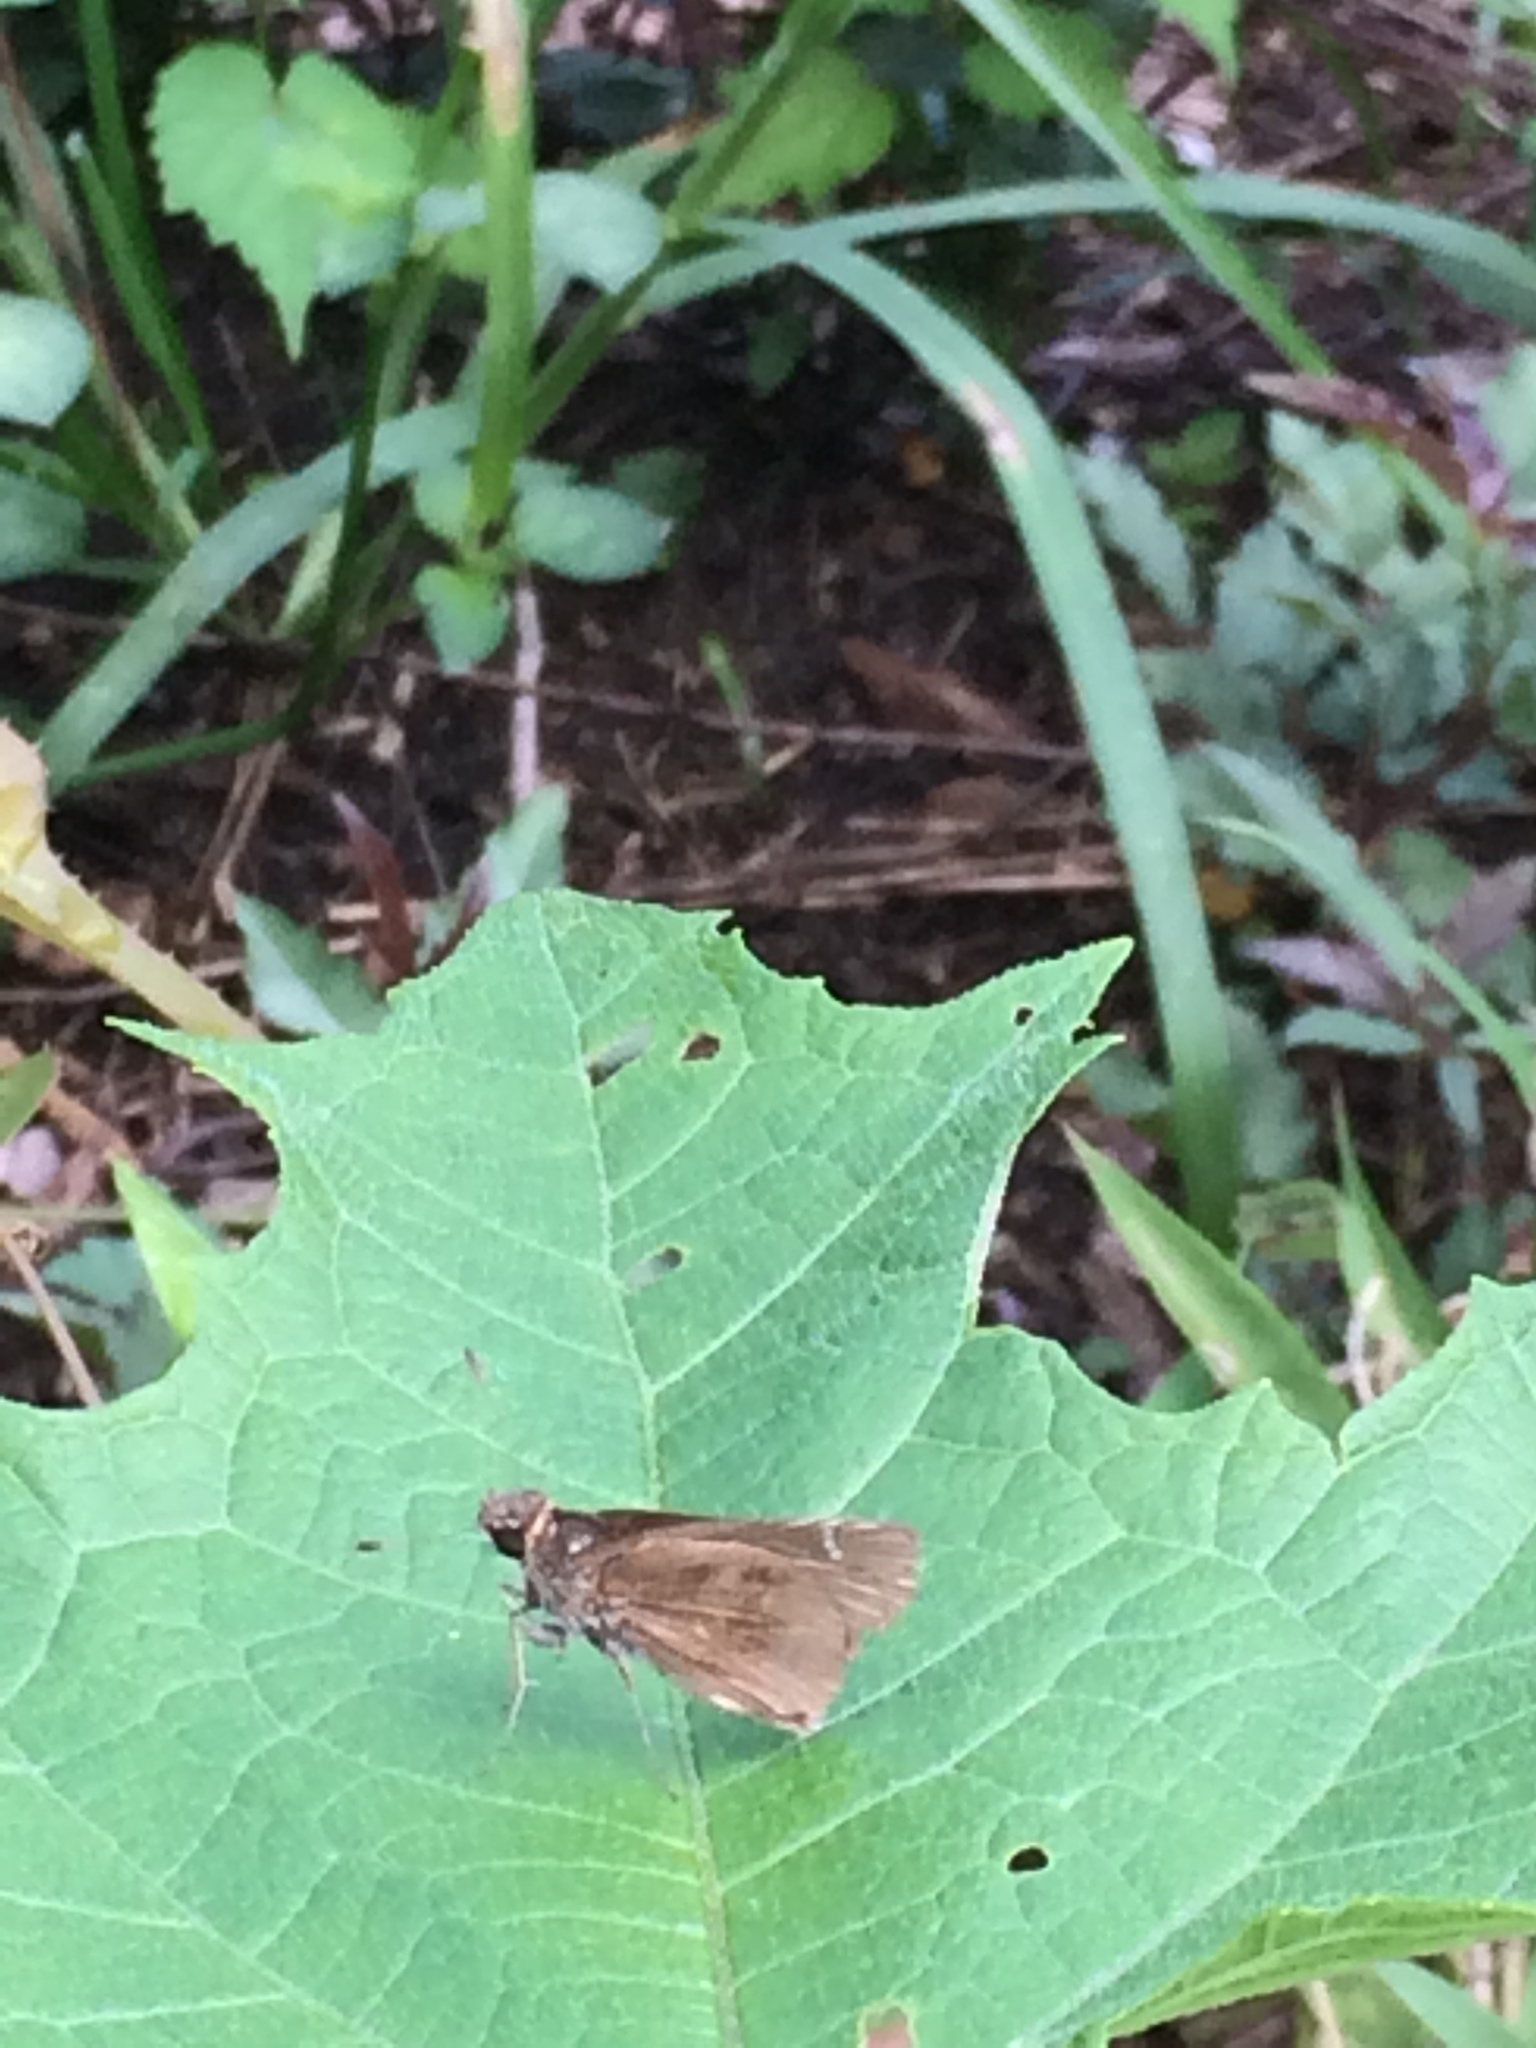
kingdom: Animalia
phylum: Arthropoda
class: Insecta
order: Lepidoptera
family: Hesperiidae
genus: Lerema
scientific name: Lerema accius
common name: Clouded skipper
